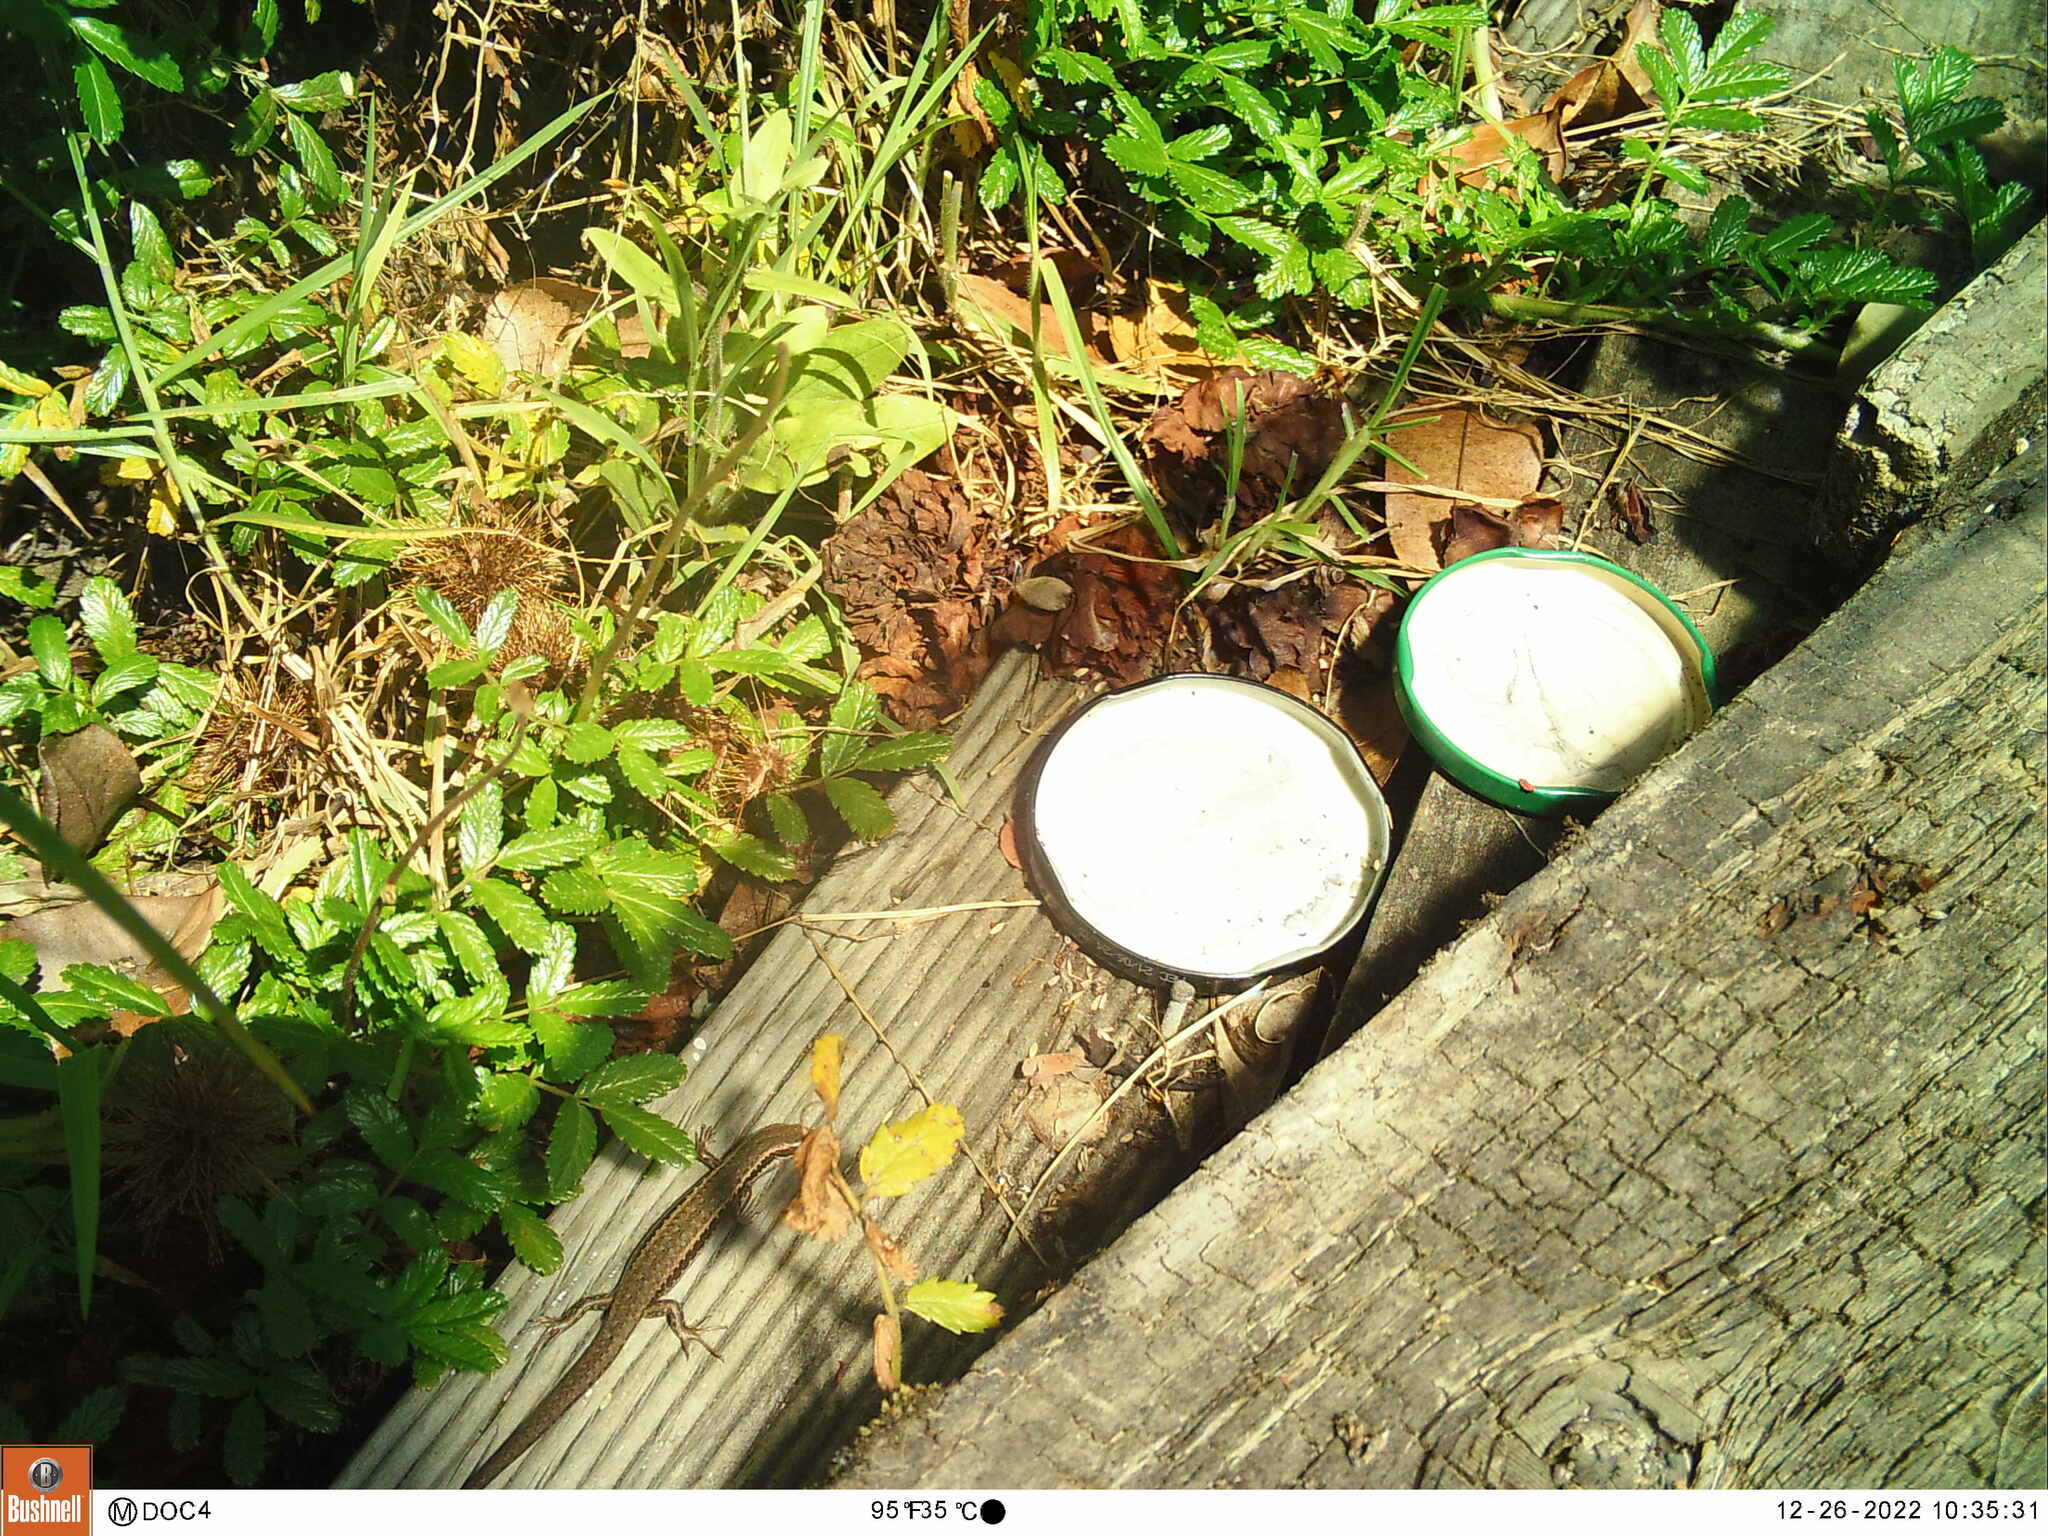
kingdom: Animalia
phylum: Chordata
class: Squamata
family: Scincidae
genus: Oligosoma
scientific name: Oligosoma polychroma
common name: Common new zealand skink
